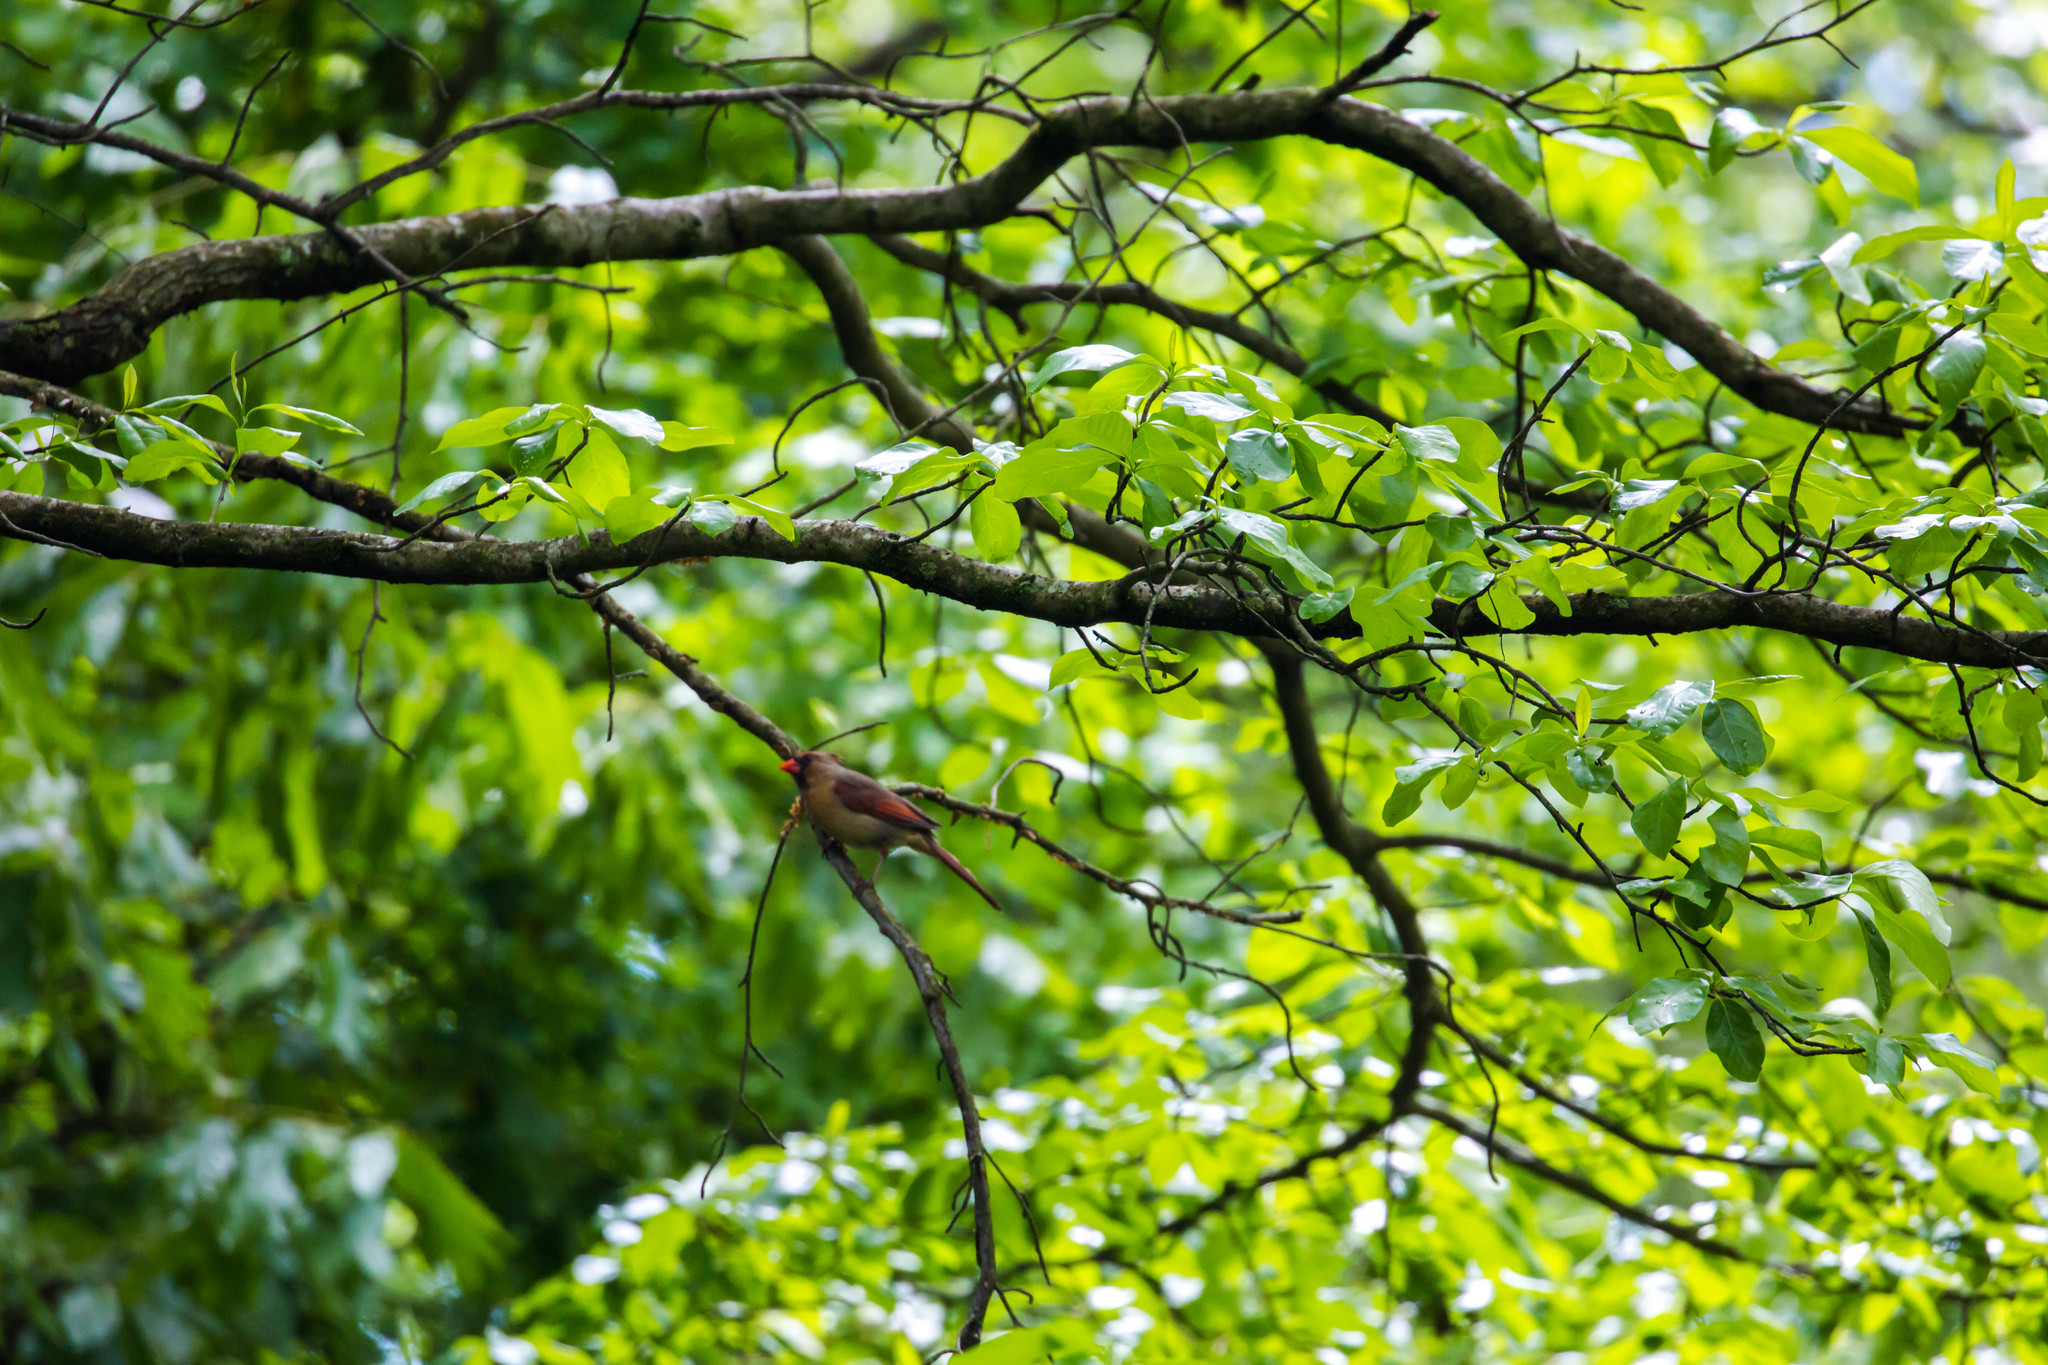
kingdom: Animalia
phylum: Chordata
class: Aves
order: Passeriformes
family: Cardinalidae
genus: Cardinalis
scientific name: Cardinalis cardinalis
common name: Northern cardinal
